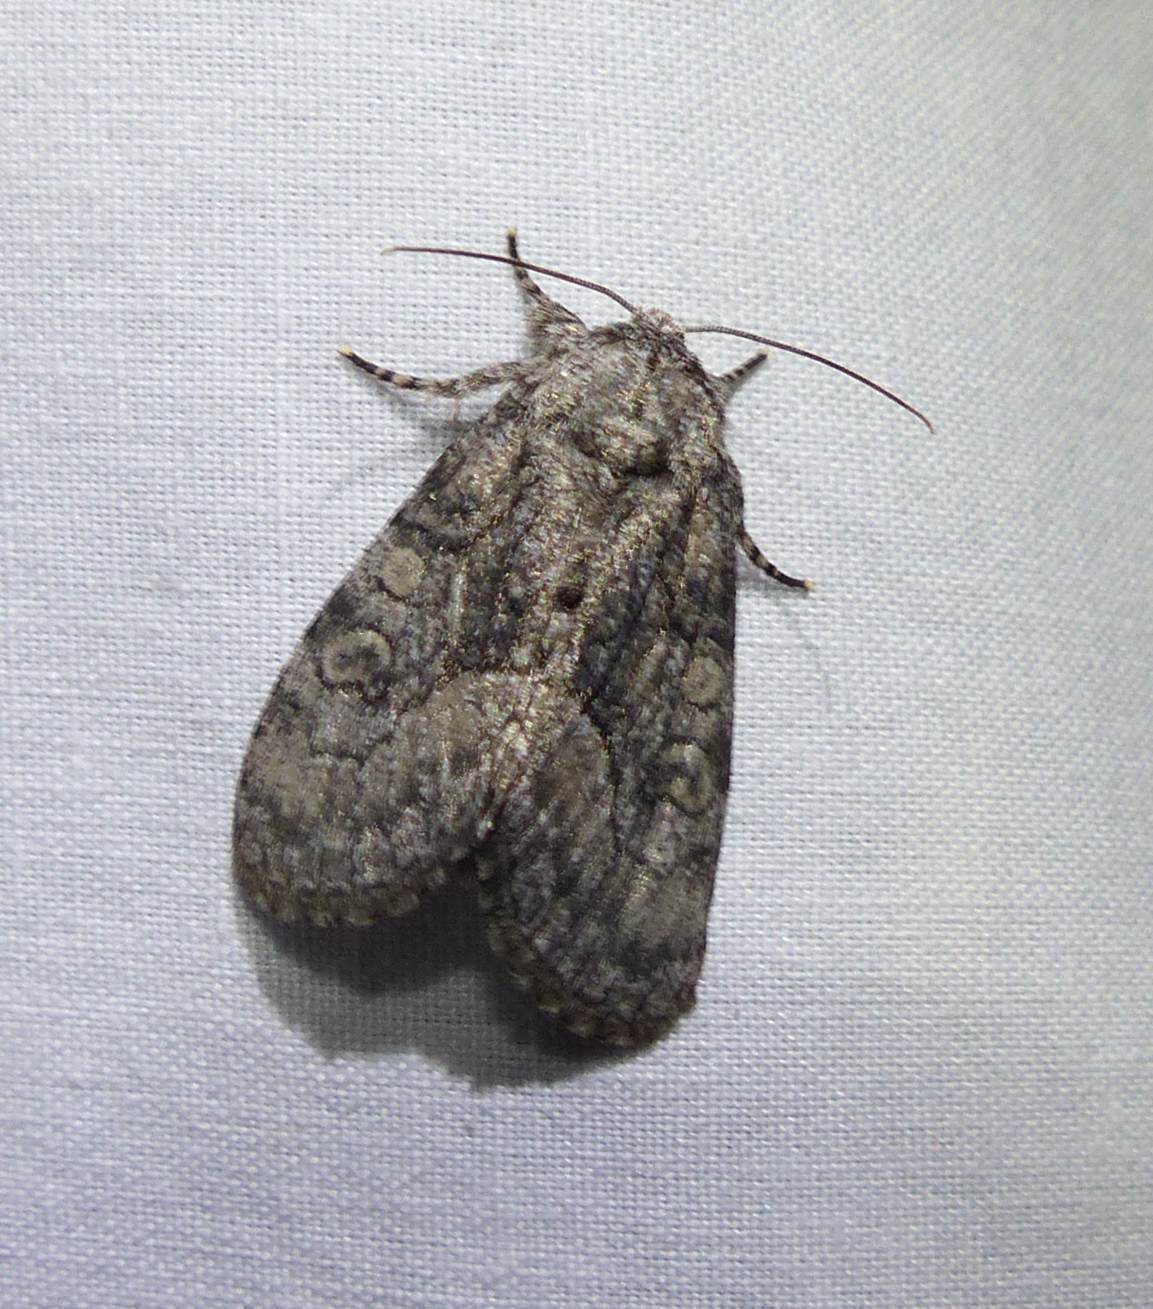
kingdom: Animalia
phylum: Arthropoda
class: Insecta
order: Lepidoptera
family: Noctuidae
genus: Raphia
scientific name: Raphia frater
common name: Brother
